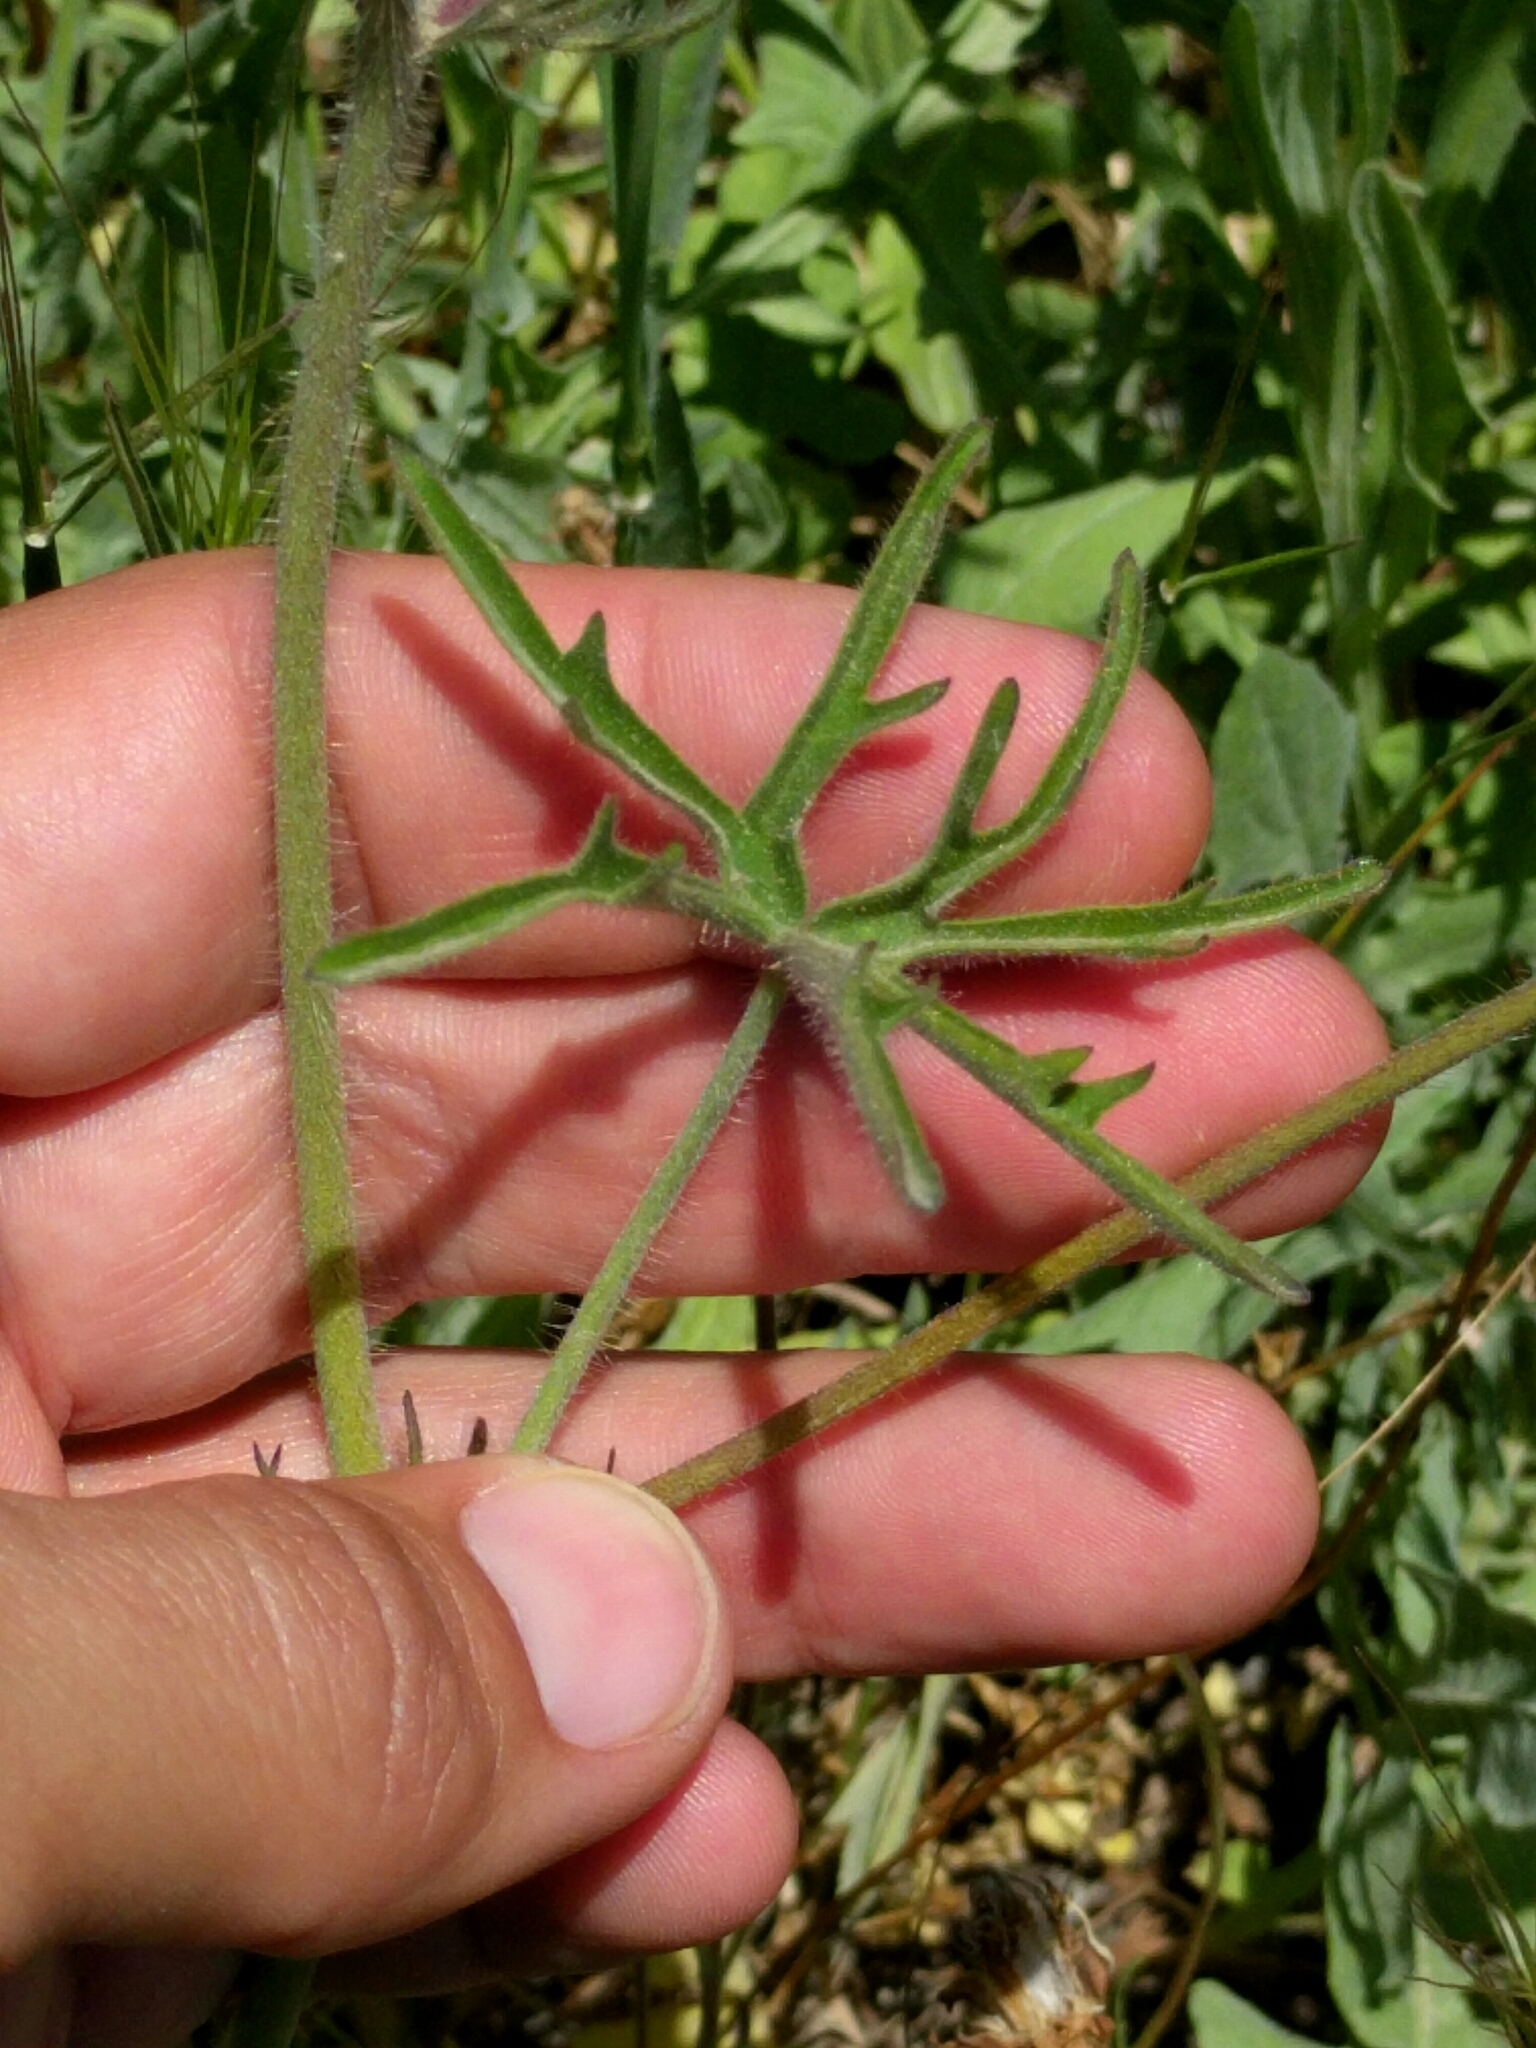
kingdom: Plantae
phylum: Tracheophyta
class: Magnoliopsida
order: Malvales
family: Malvaceae
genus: Sidalcea
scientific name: Sidalcea diploscypha
